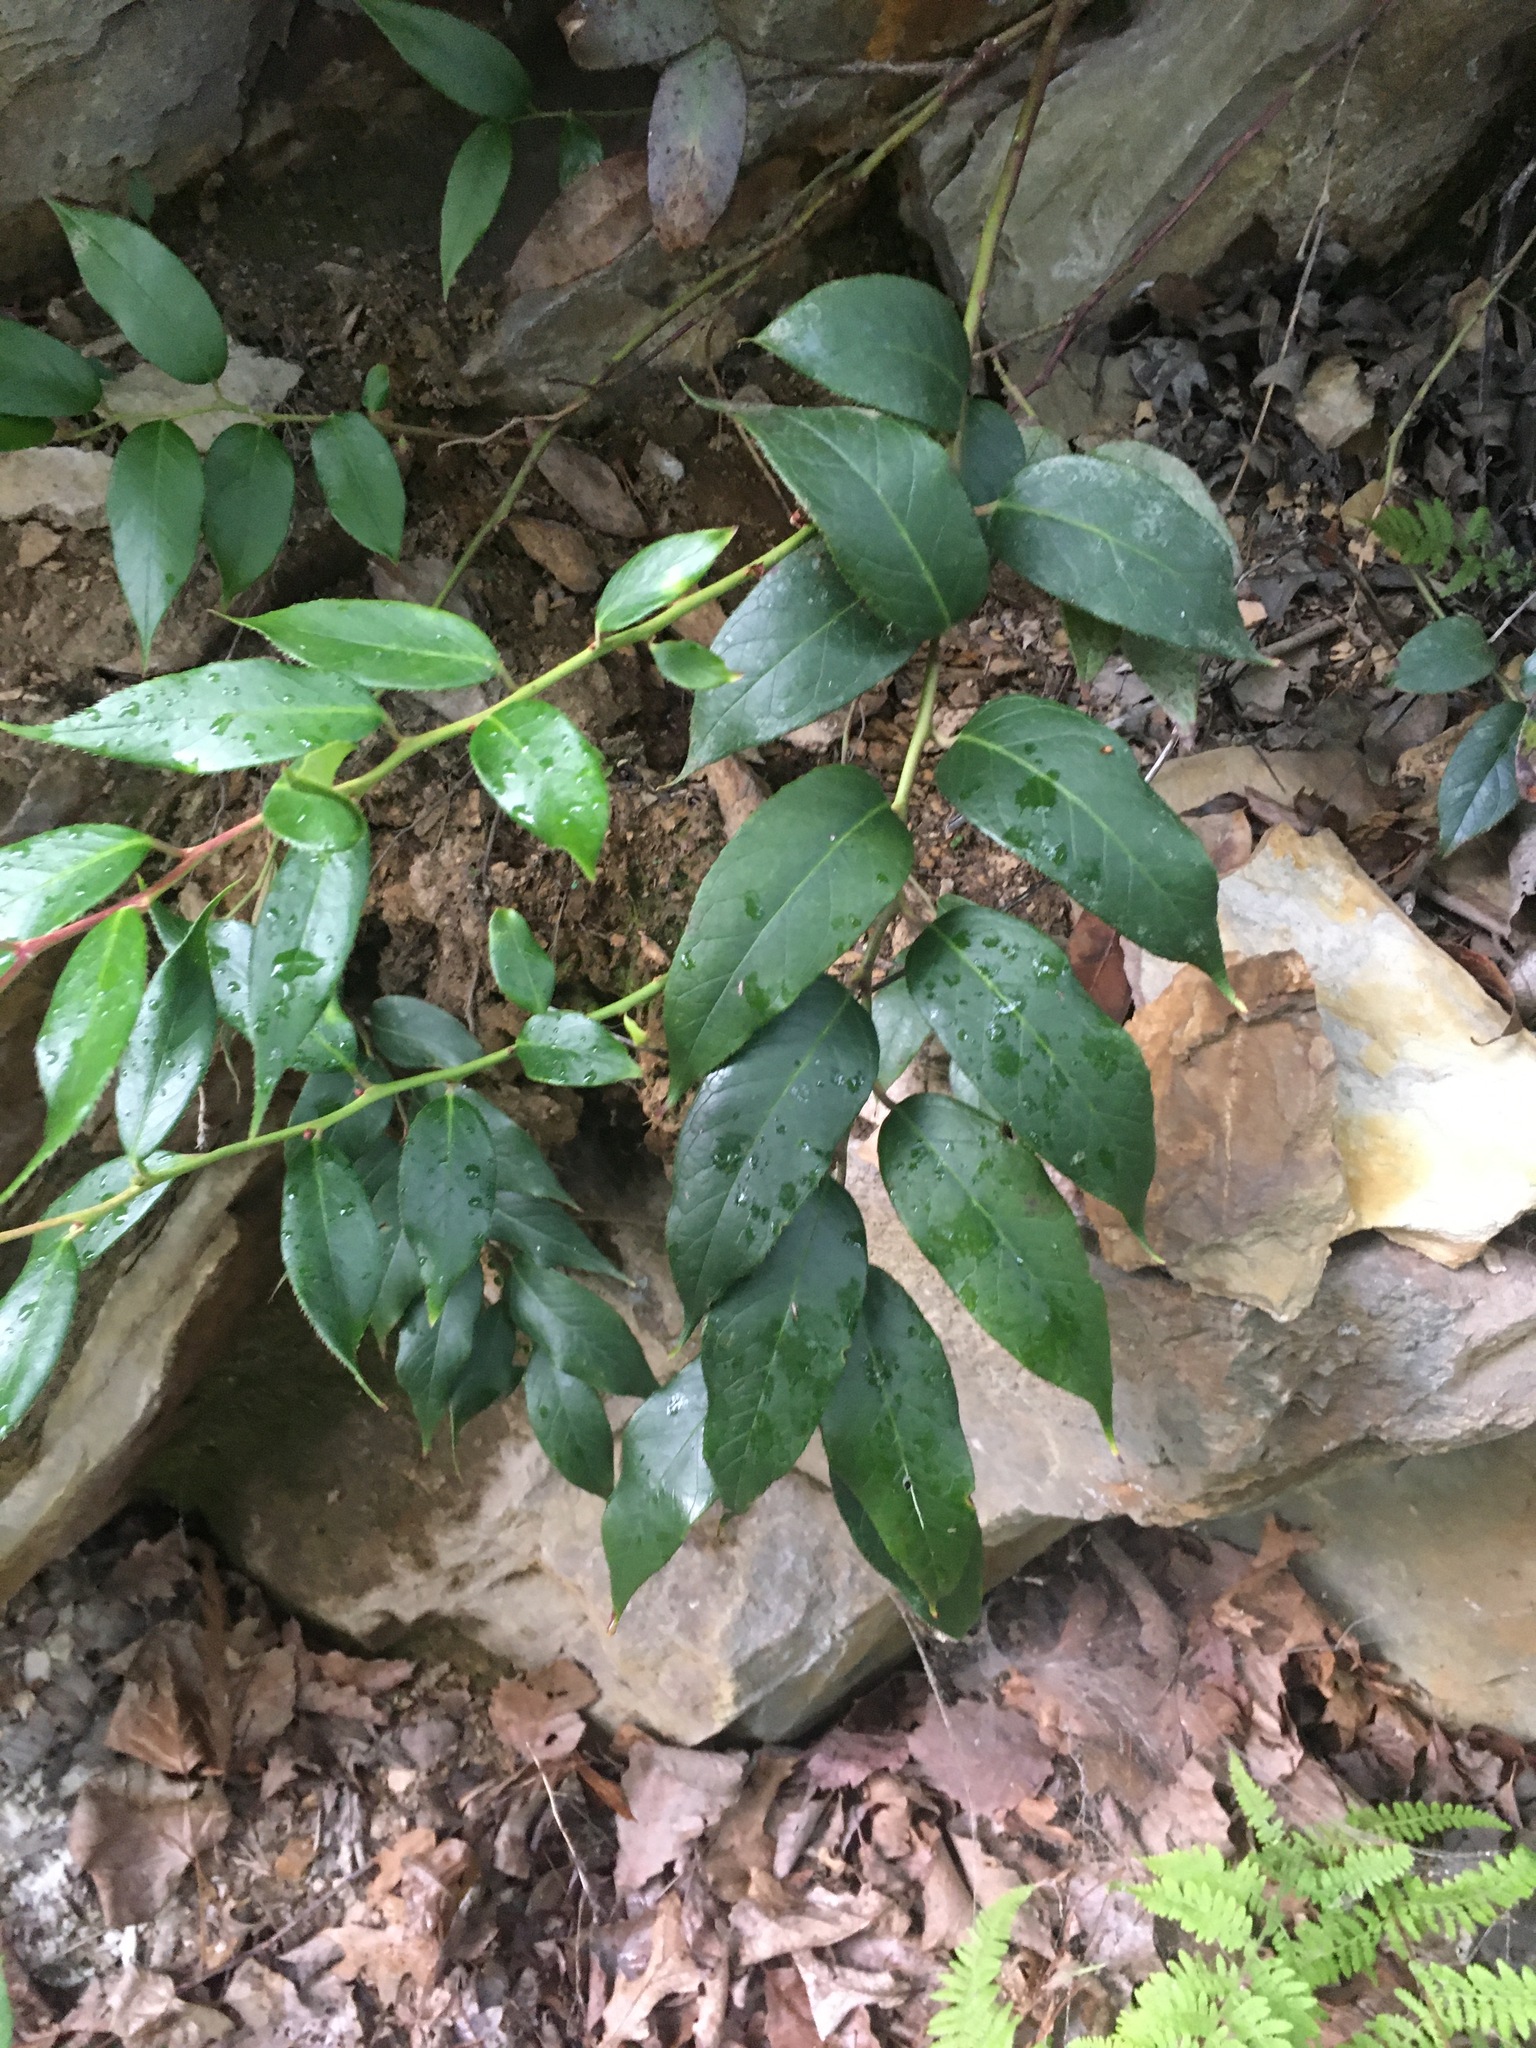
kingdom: Plantae
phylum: Tracheophyta
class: Magnoliopsida
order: Ericales
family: Ericaceae
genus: Leucothoe
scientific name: Leucothoe fontanesiana
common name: Fetterbush
